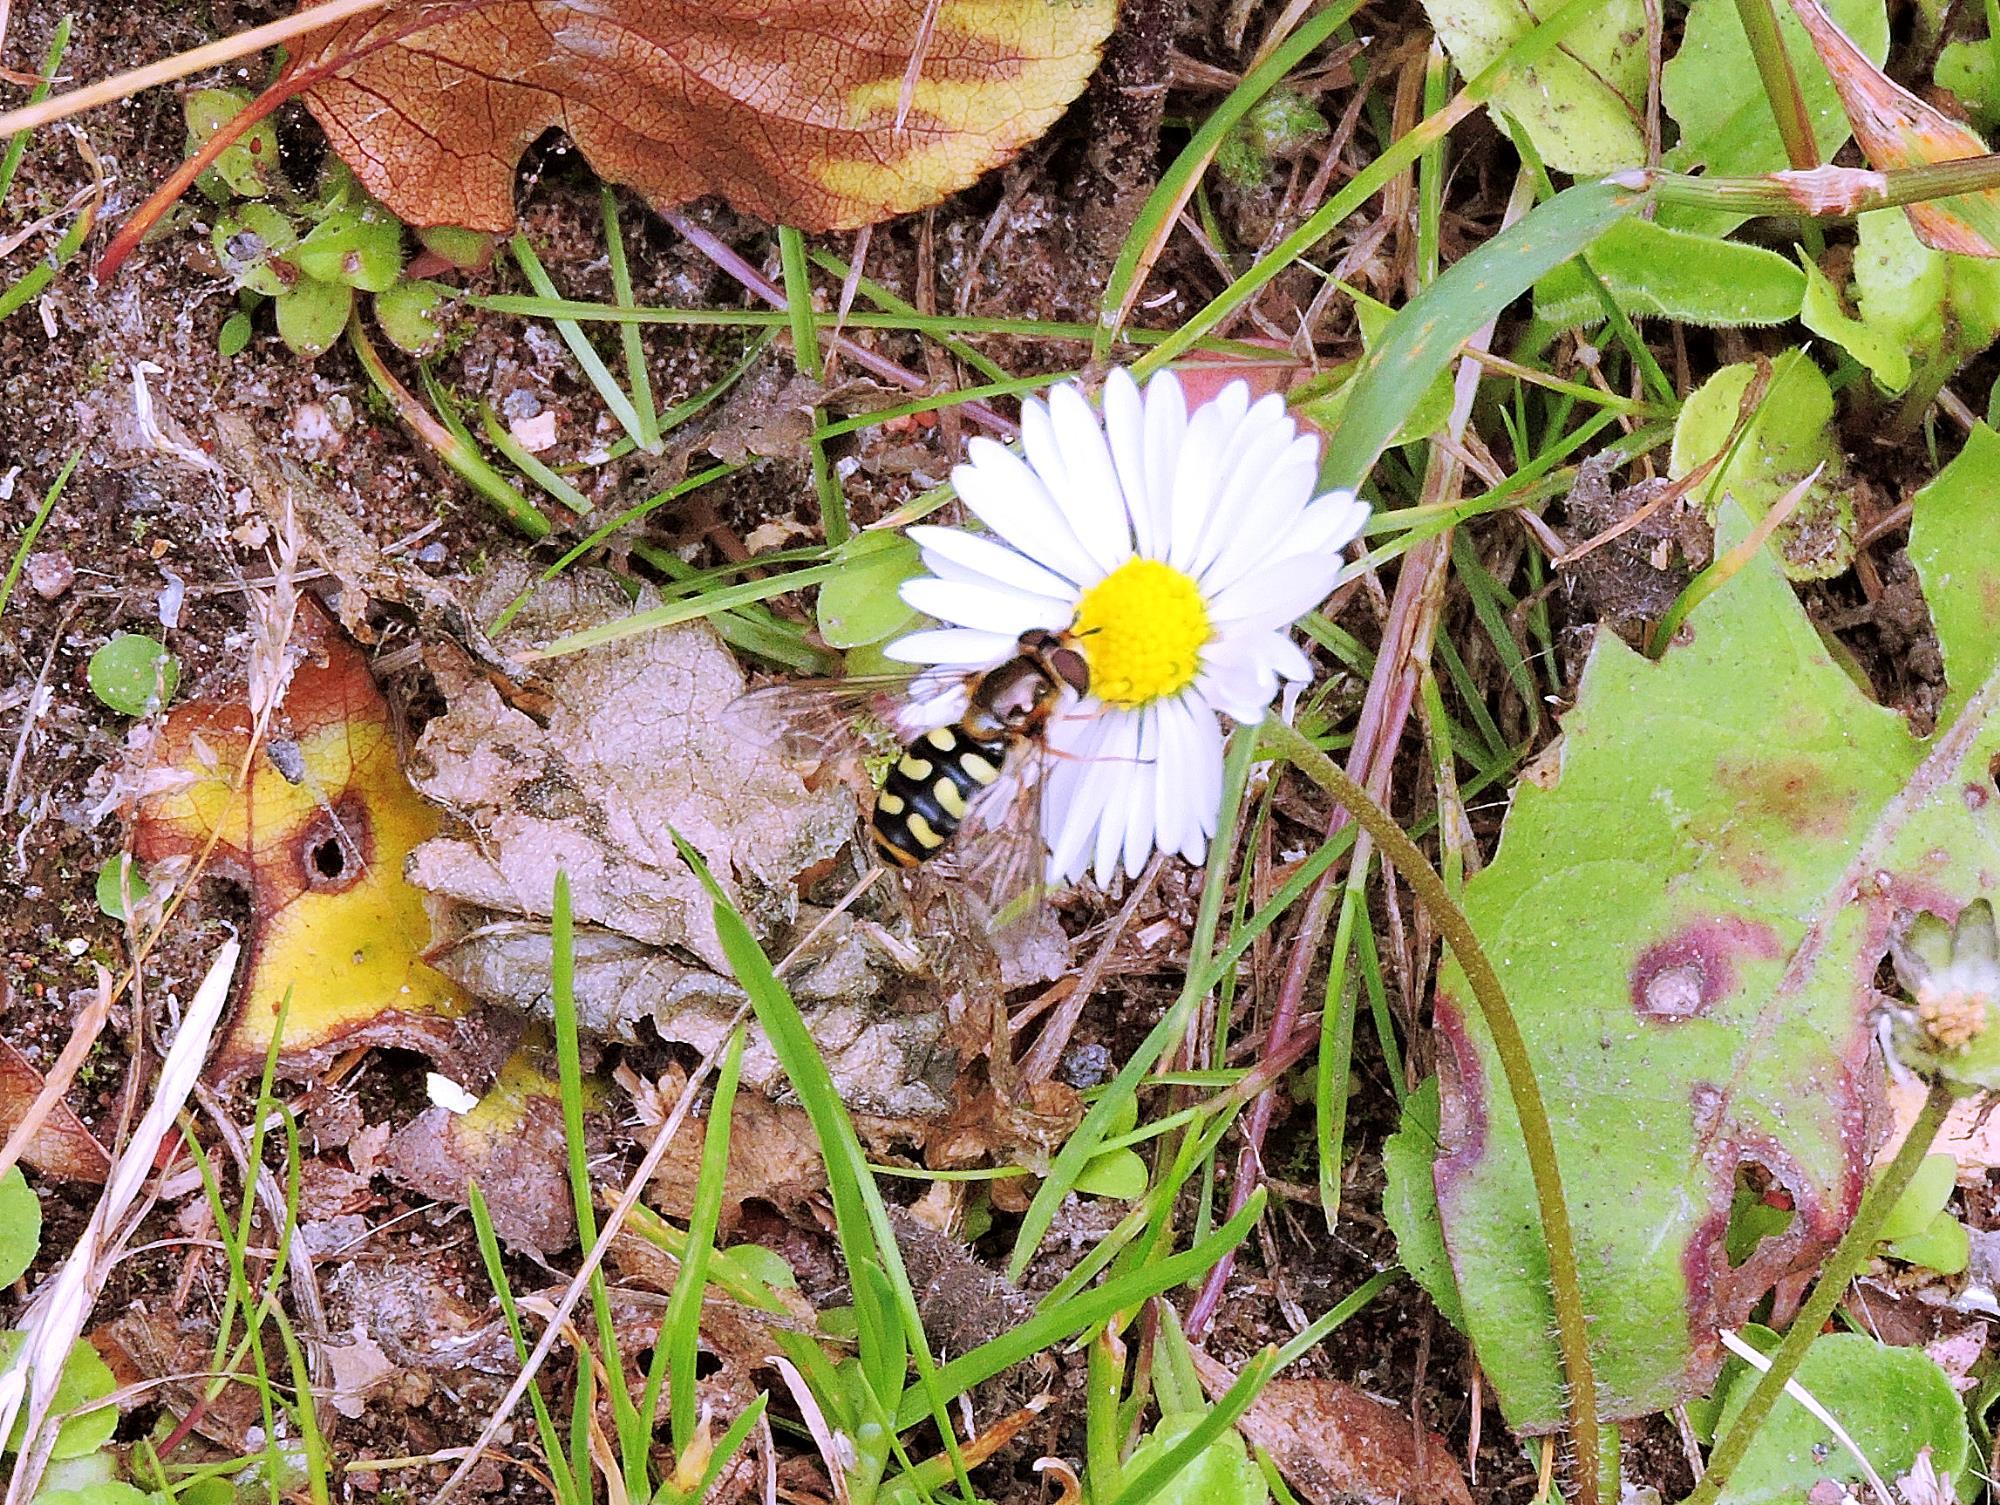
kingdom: Animalia
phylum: Arthropoda
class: Insecta
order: Diptera
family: Syrphidae
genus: Eupeodes
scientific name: Eupeodes luniger
